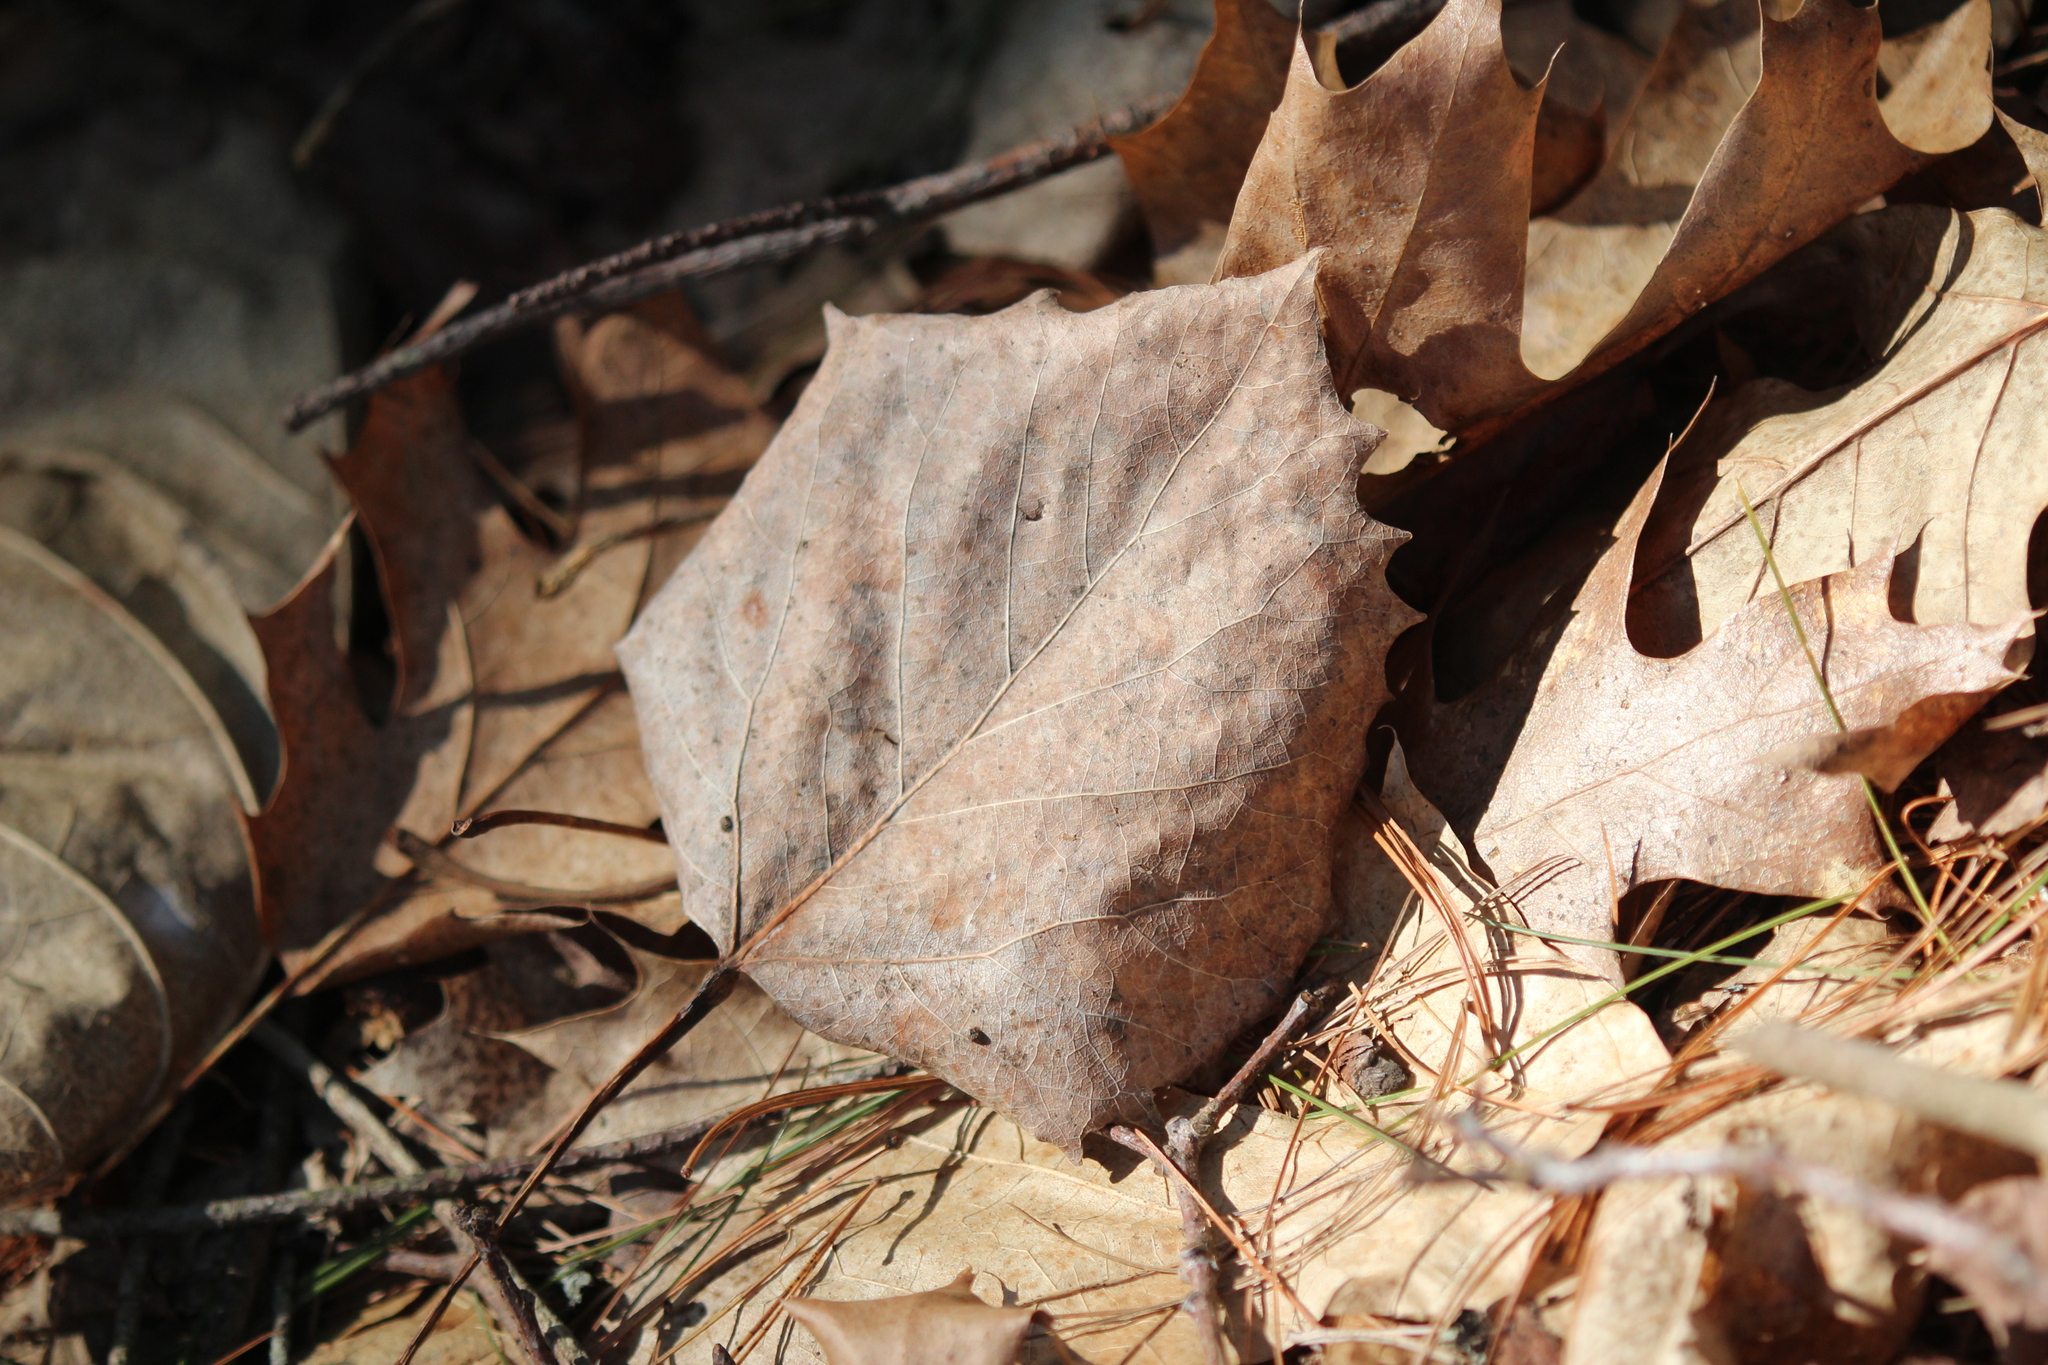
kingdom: Plantae
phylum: Tracheophyta
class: Magnoliopsida
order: Malpighiales
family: Salicaceae
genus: Populus
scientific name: Populus grandidentata
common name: Bigtooth aspen
